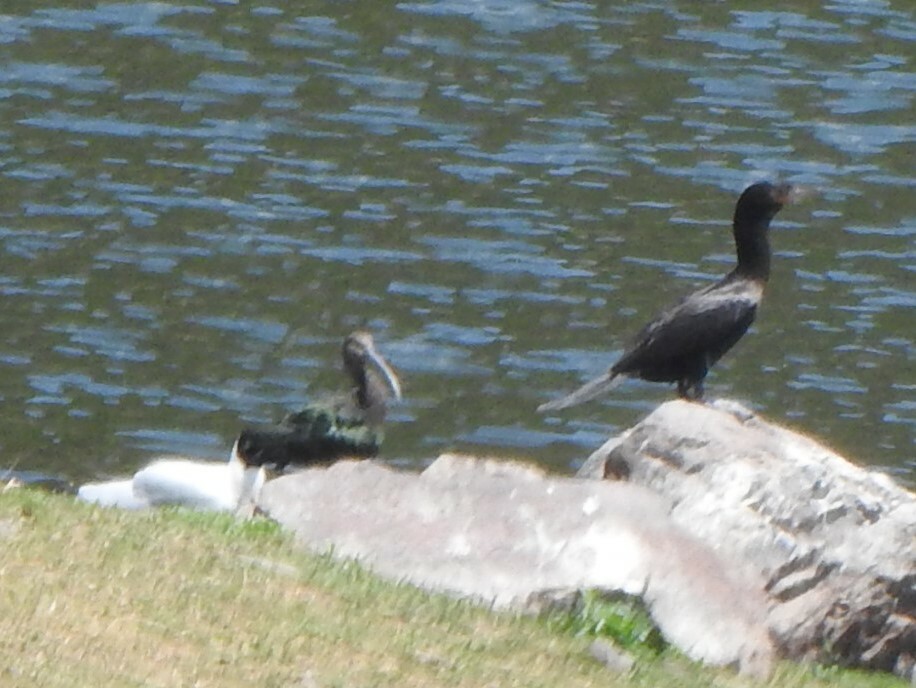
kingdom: Animalia
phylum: Chordata
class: Aves
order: Pelecaniformes
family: Threskiornithidae
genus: Plegadis
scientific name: Plegadis chihi
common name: White-faced ibis
